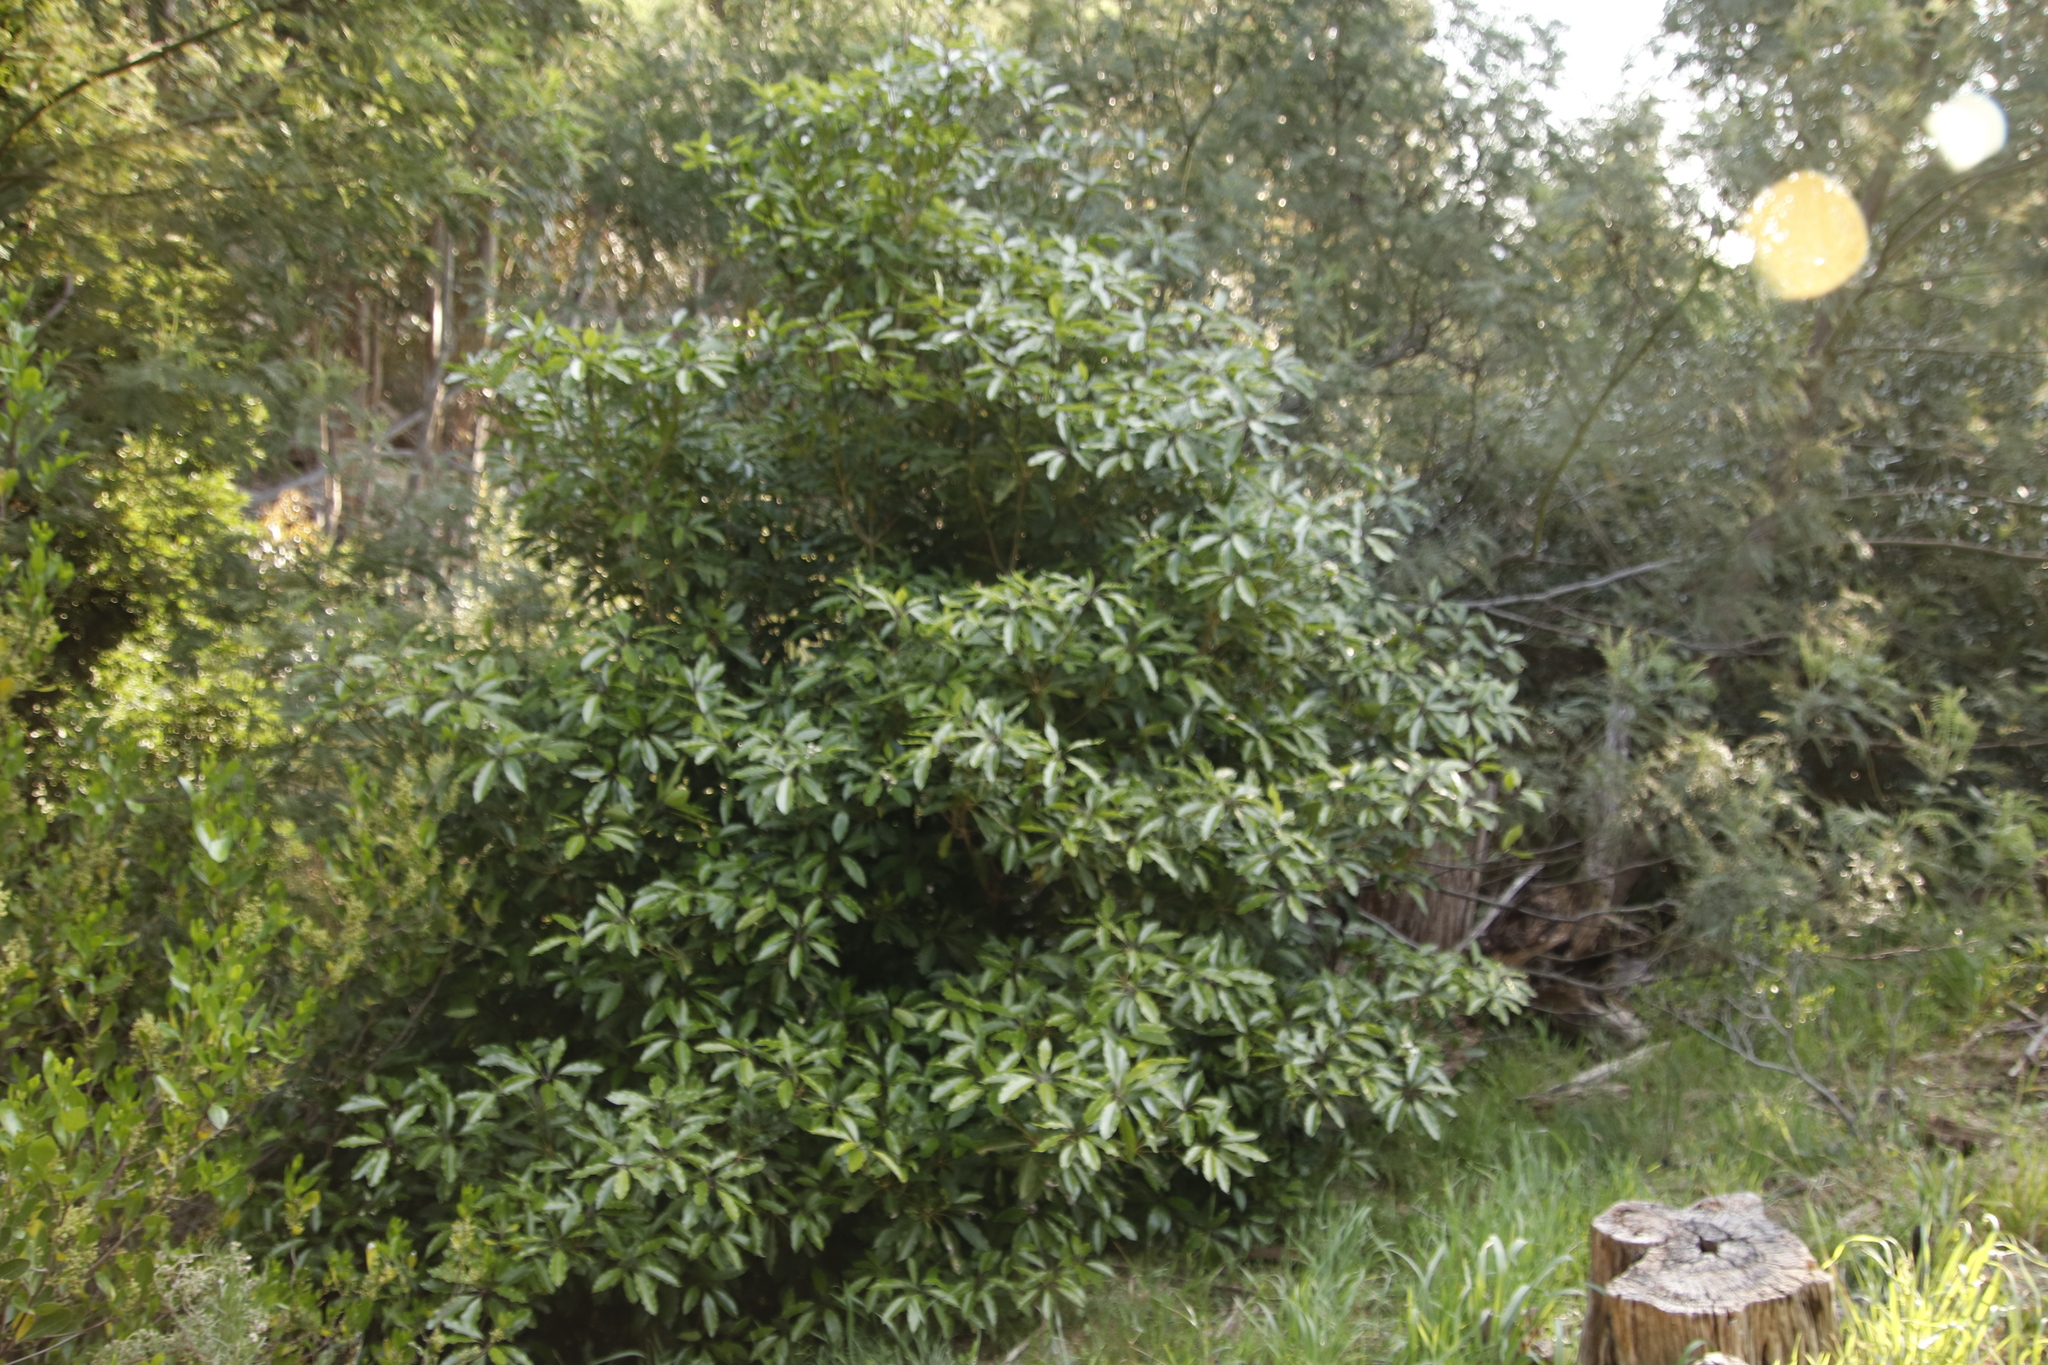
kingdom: Plantae
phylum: Tracheophyta
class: Magnoliopsida
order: Apiales
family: Pittosporaceae
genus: Pittosporum
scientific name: Pittosporum undulatum
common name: Australian cheesewood
